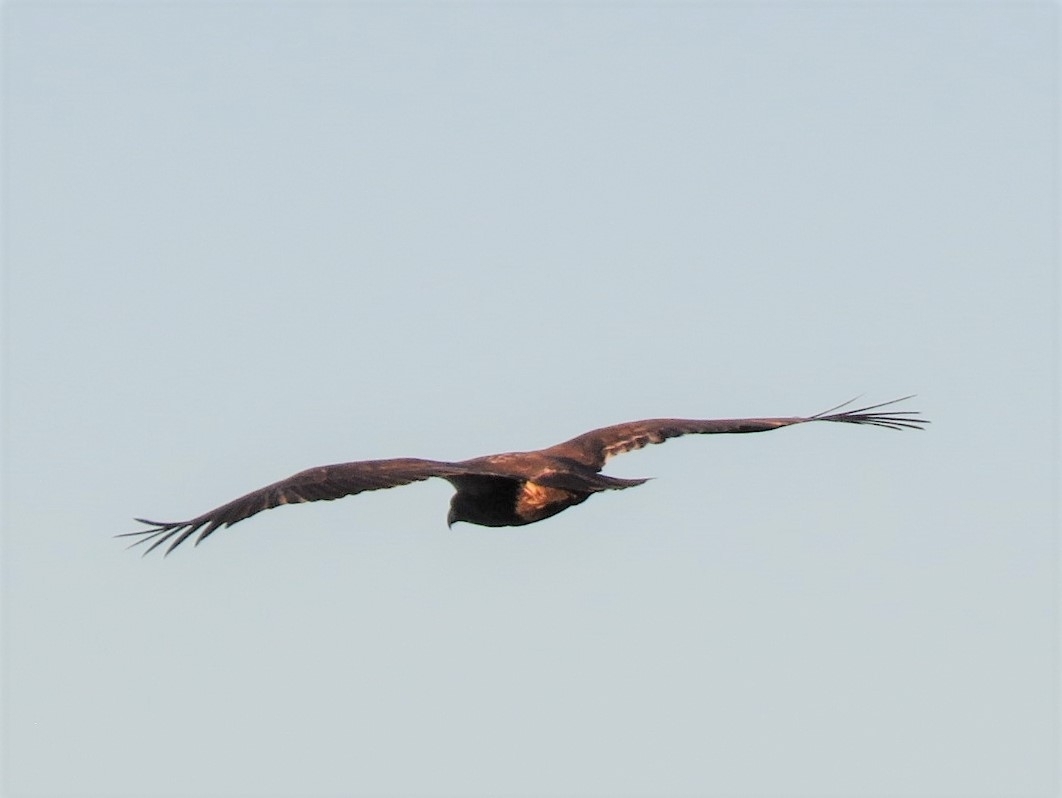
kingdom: Animalia
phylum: Chordata
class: Aves
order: Accipitriformes
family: Accipitridae
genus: Haliaeetus
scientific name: Haliaeetus leucocephalus
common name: Bald eagle
